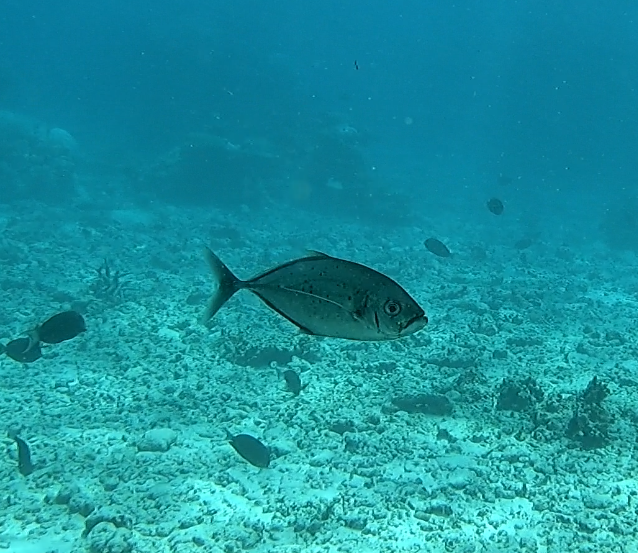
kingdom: Animalia
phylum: Chordata
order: Perciformes
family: Carangidae
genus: Craterognathus
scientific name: Craterognathus plagiotaenia
